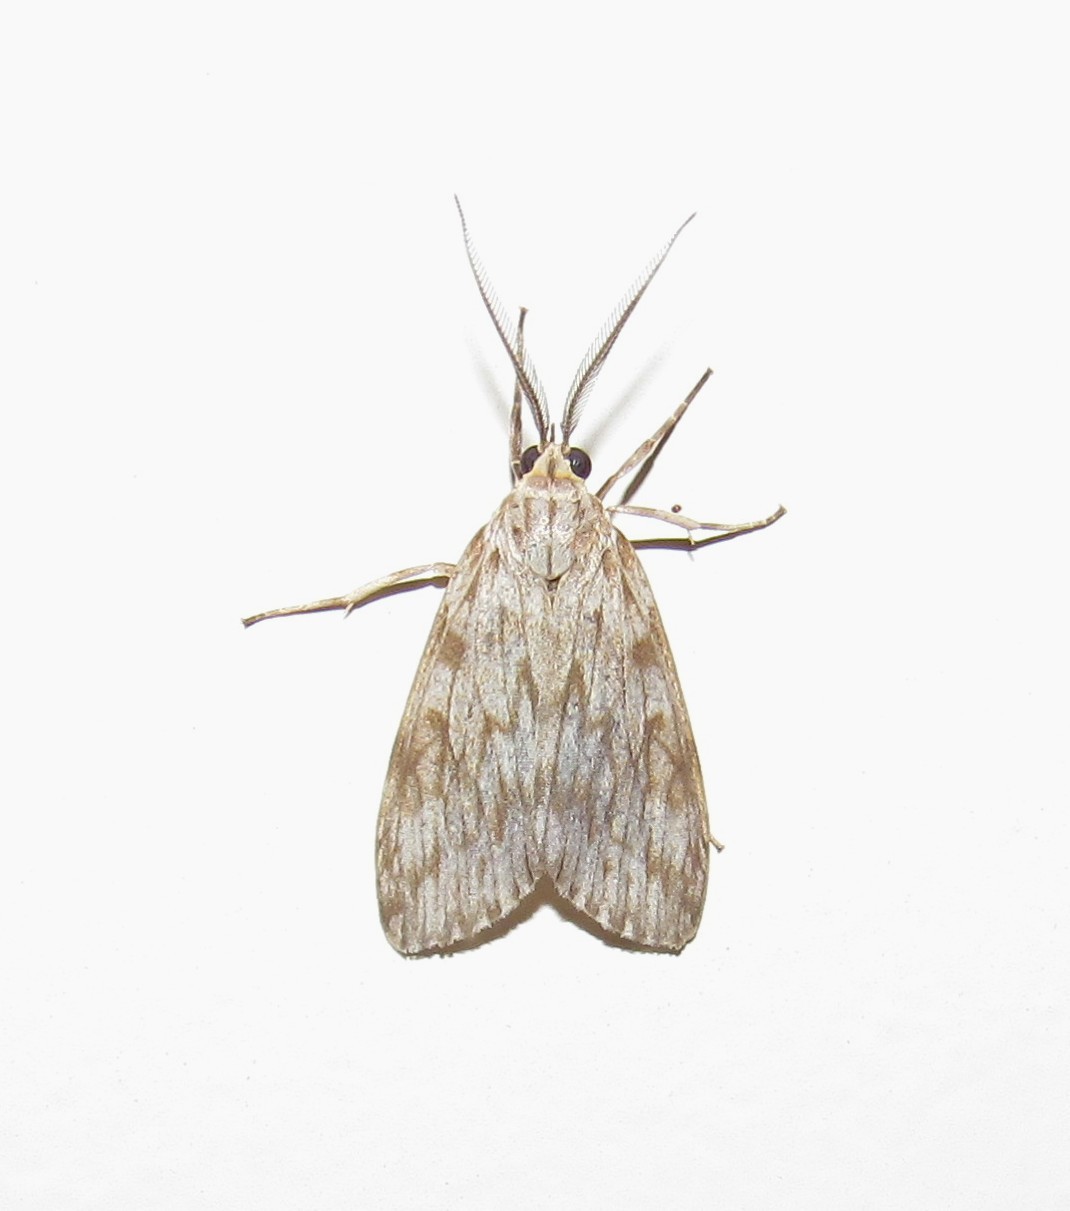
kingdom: Animalia
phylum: Arthropoda
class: Insecta
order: Lepidoptera
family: Erebidae
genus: Eucereon
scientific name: Eucereon ladas
